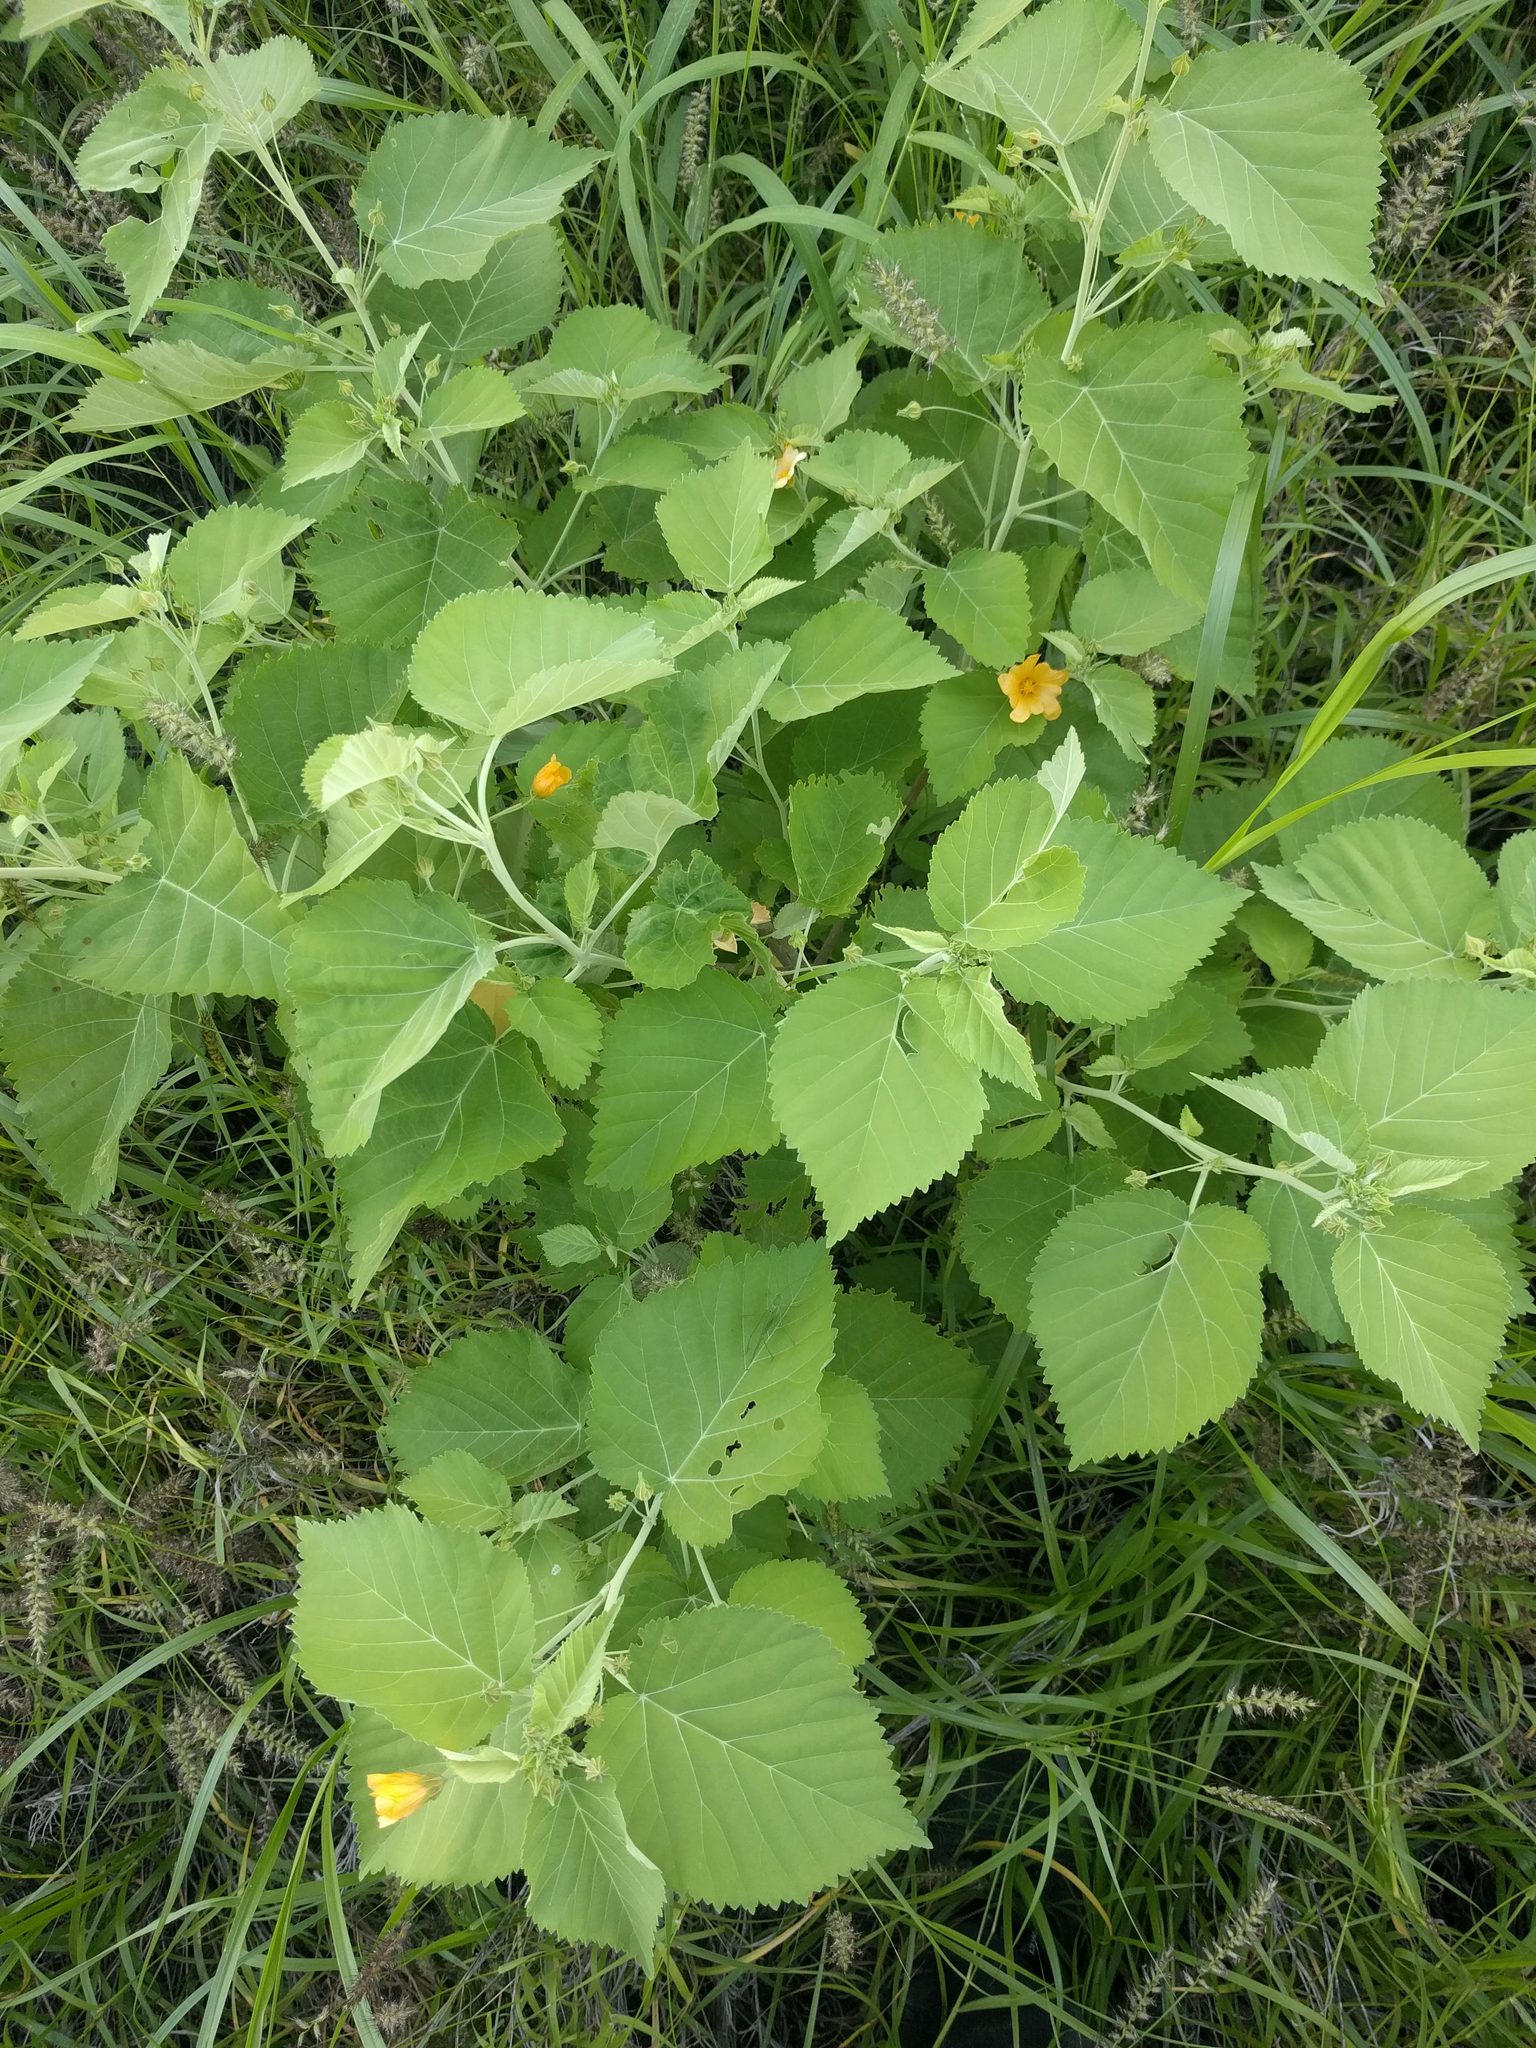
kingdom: Plantae
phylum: Tracheophyta
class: Magnoliopsida
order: Malvales
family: Malvaceae
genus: Sida
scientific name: Sida fallax
